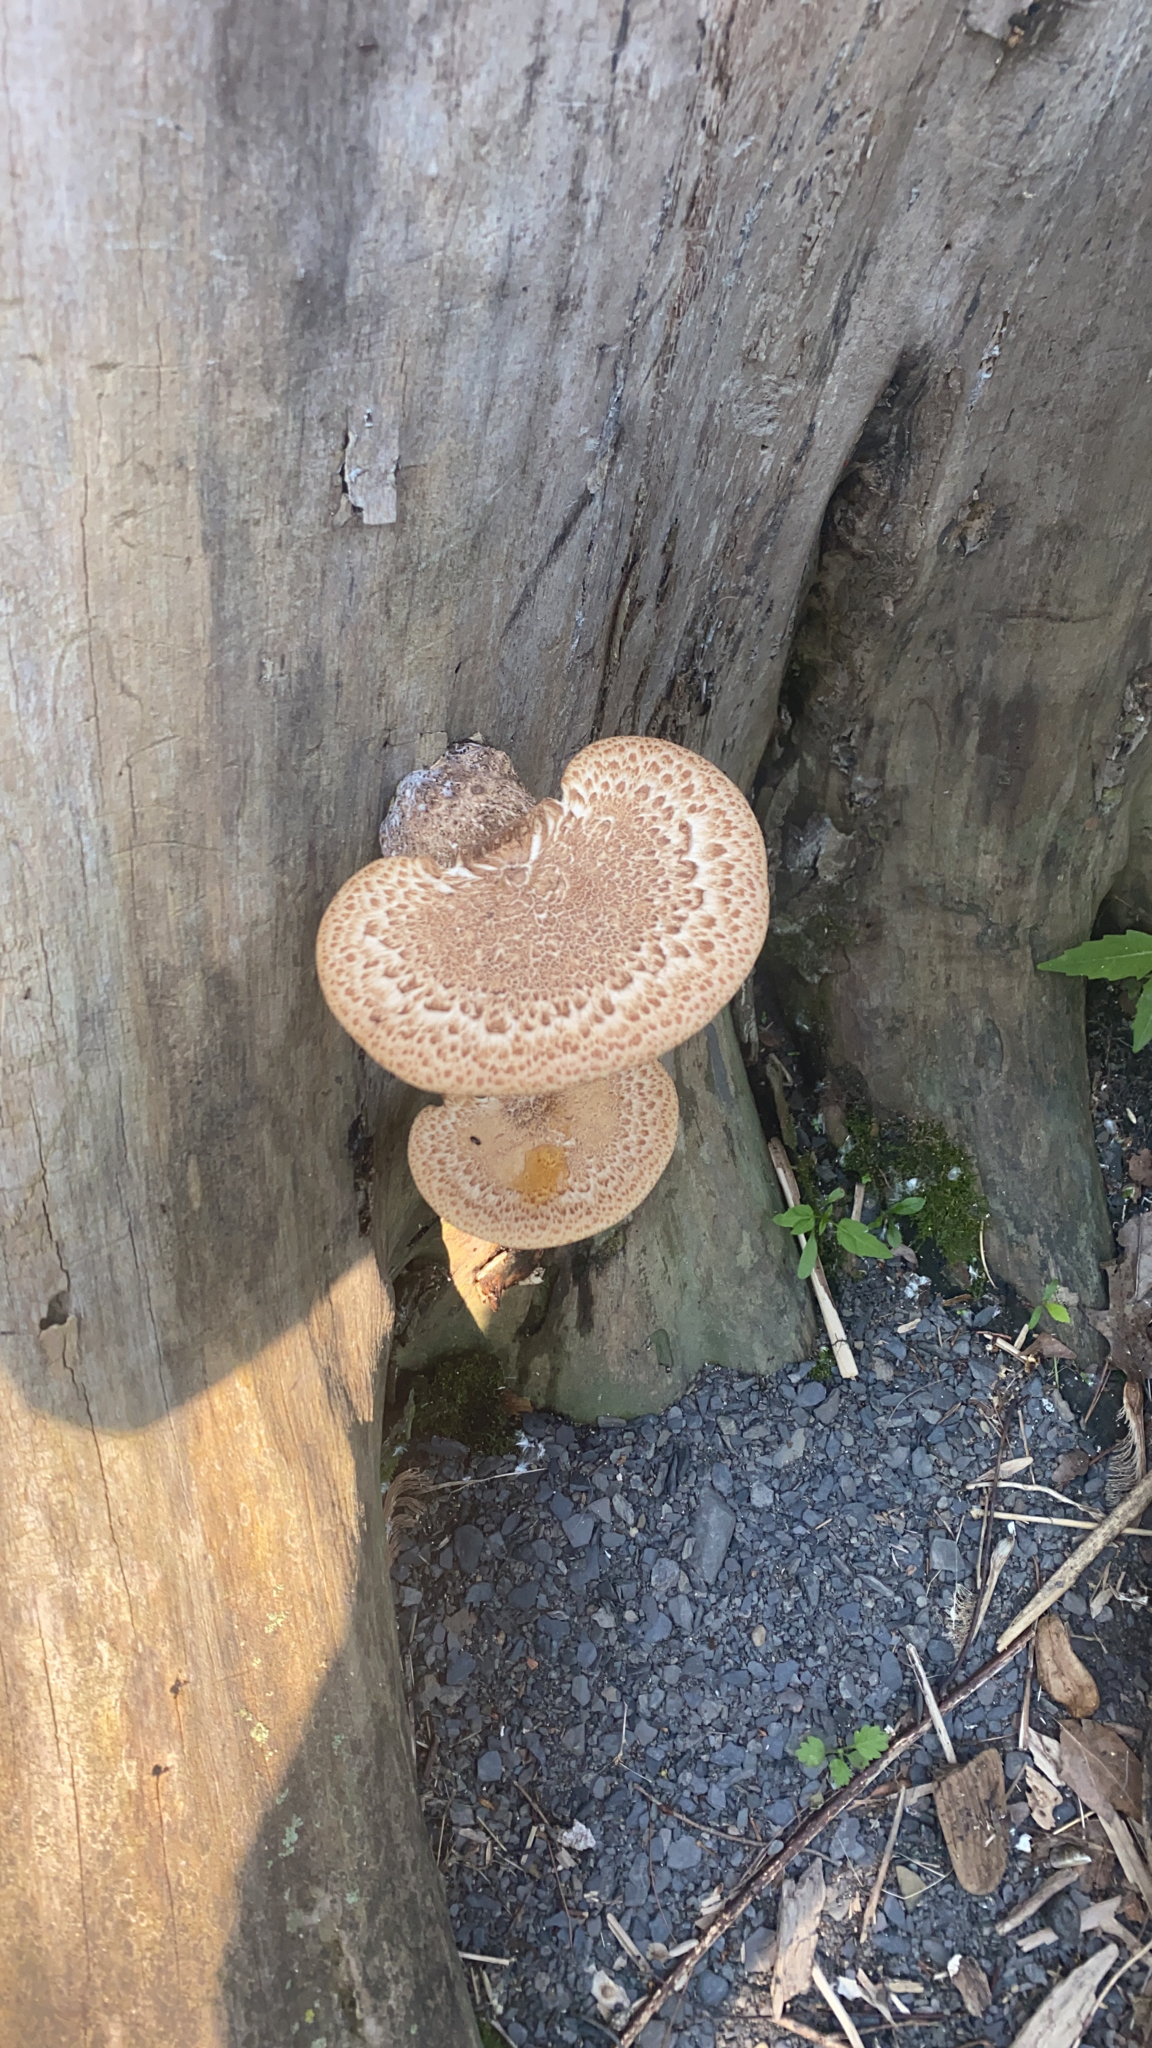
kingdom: Fungi
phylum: Basidiomycota
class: Agaricomycetes
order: Polyporales
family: Polyporaceae
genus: Cerioporus
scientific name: Cerioporus squamosus
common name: Dryad's saddle
